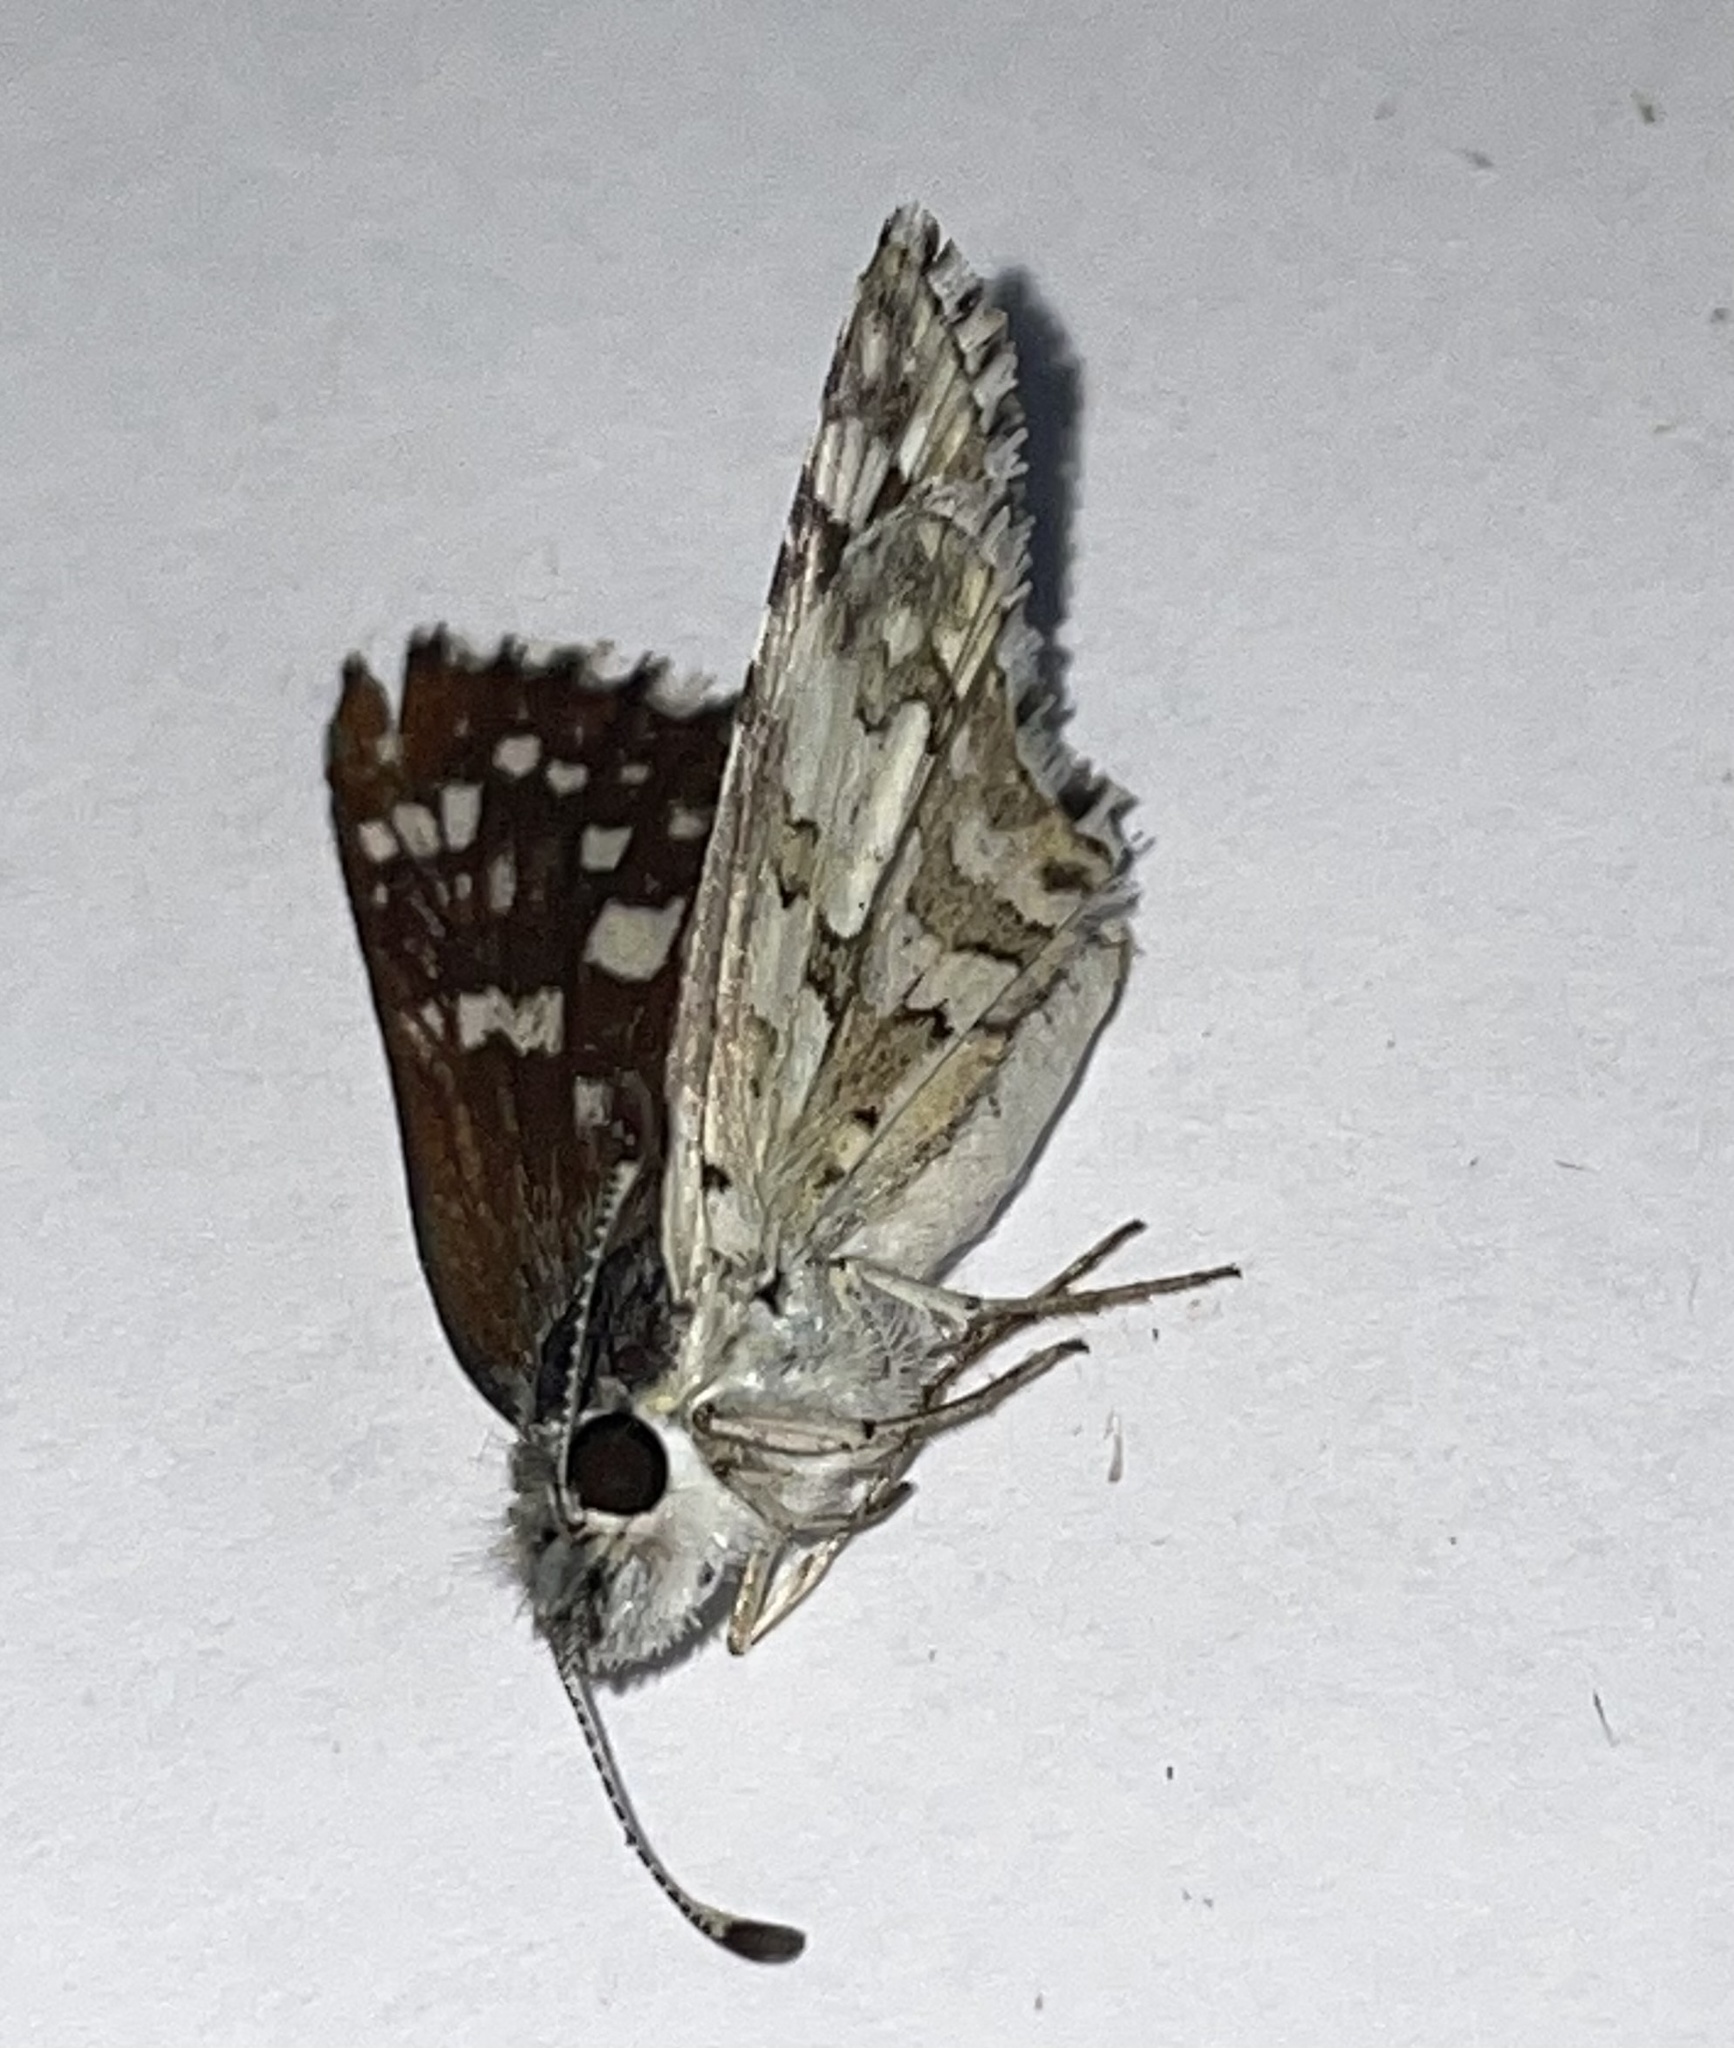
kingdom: Animalia
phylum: Arthropoda
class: Insecta
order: Lepidoptera
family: Hesperiidae
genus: Burnsius
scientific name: Burnsius communis
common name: Common checkered-skipper
